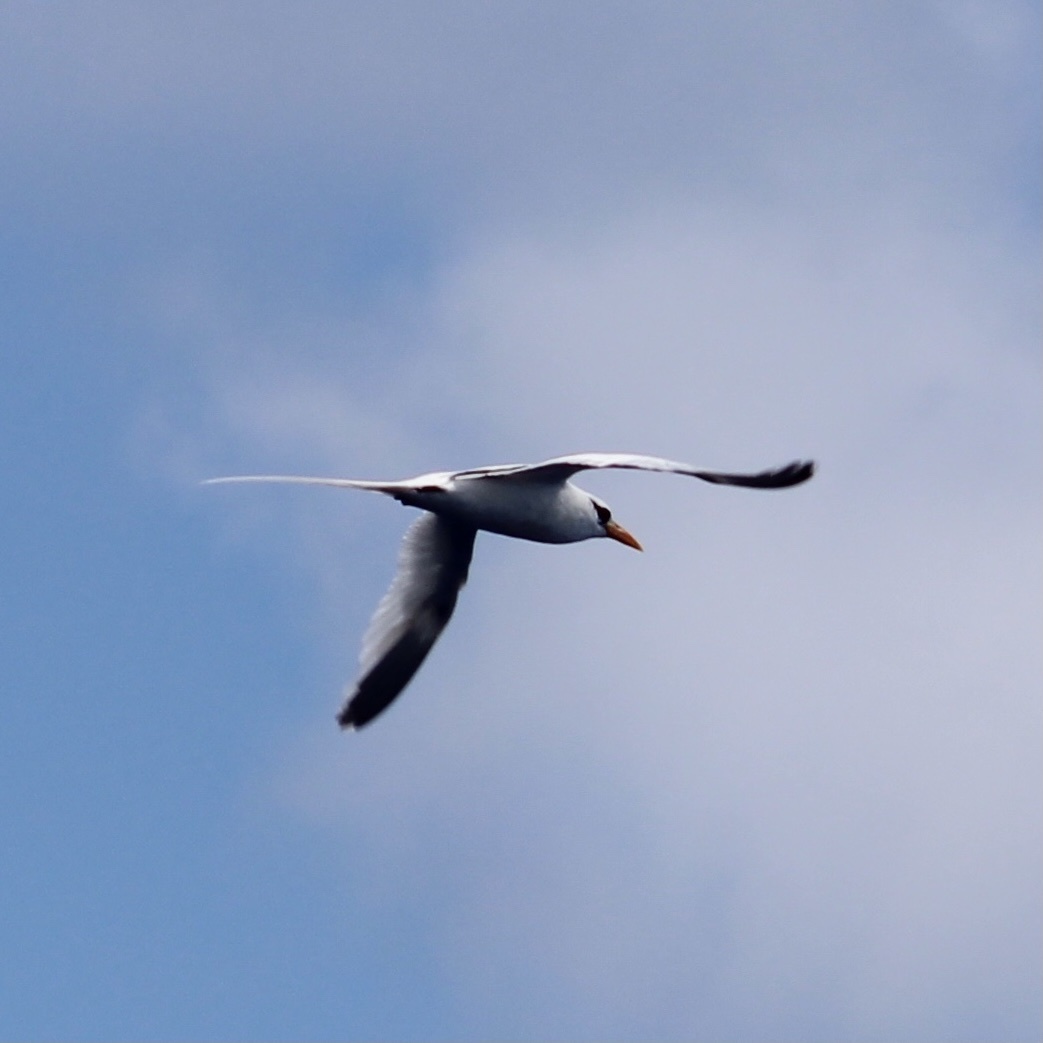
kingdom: Animalia
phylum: Chordata
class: Aves
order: Phaethontiformes
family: Phaethontidae
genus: Phaethon
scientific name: Phaethon lepturus
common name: White-tailed tropicbird
